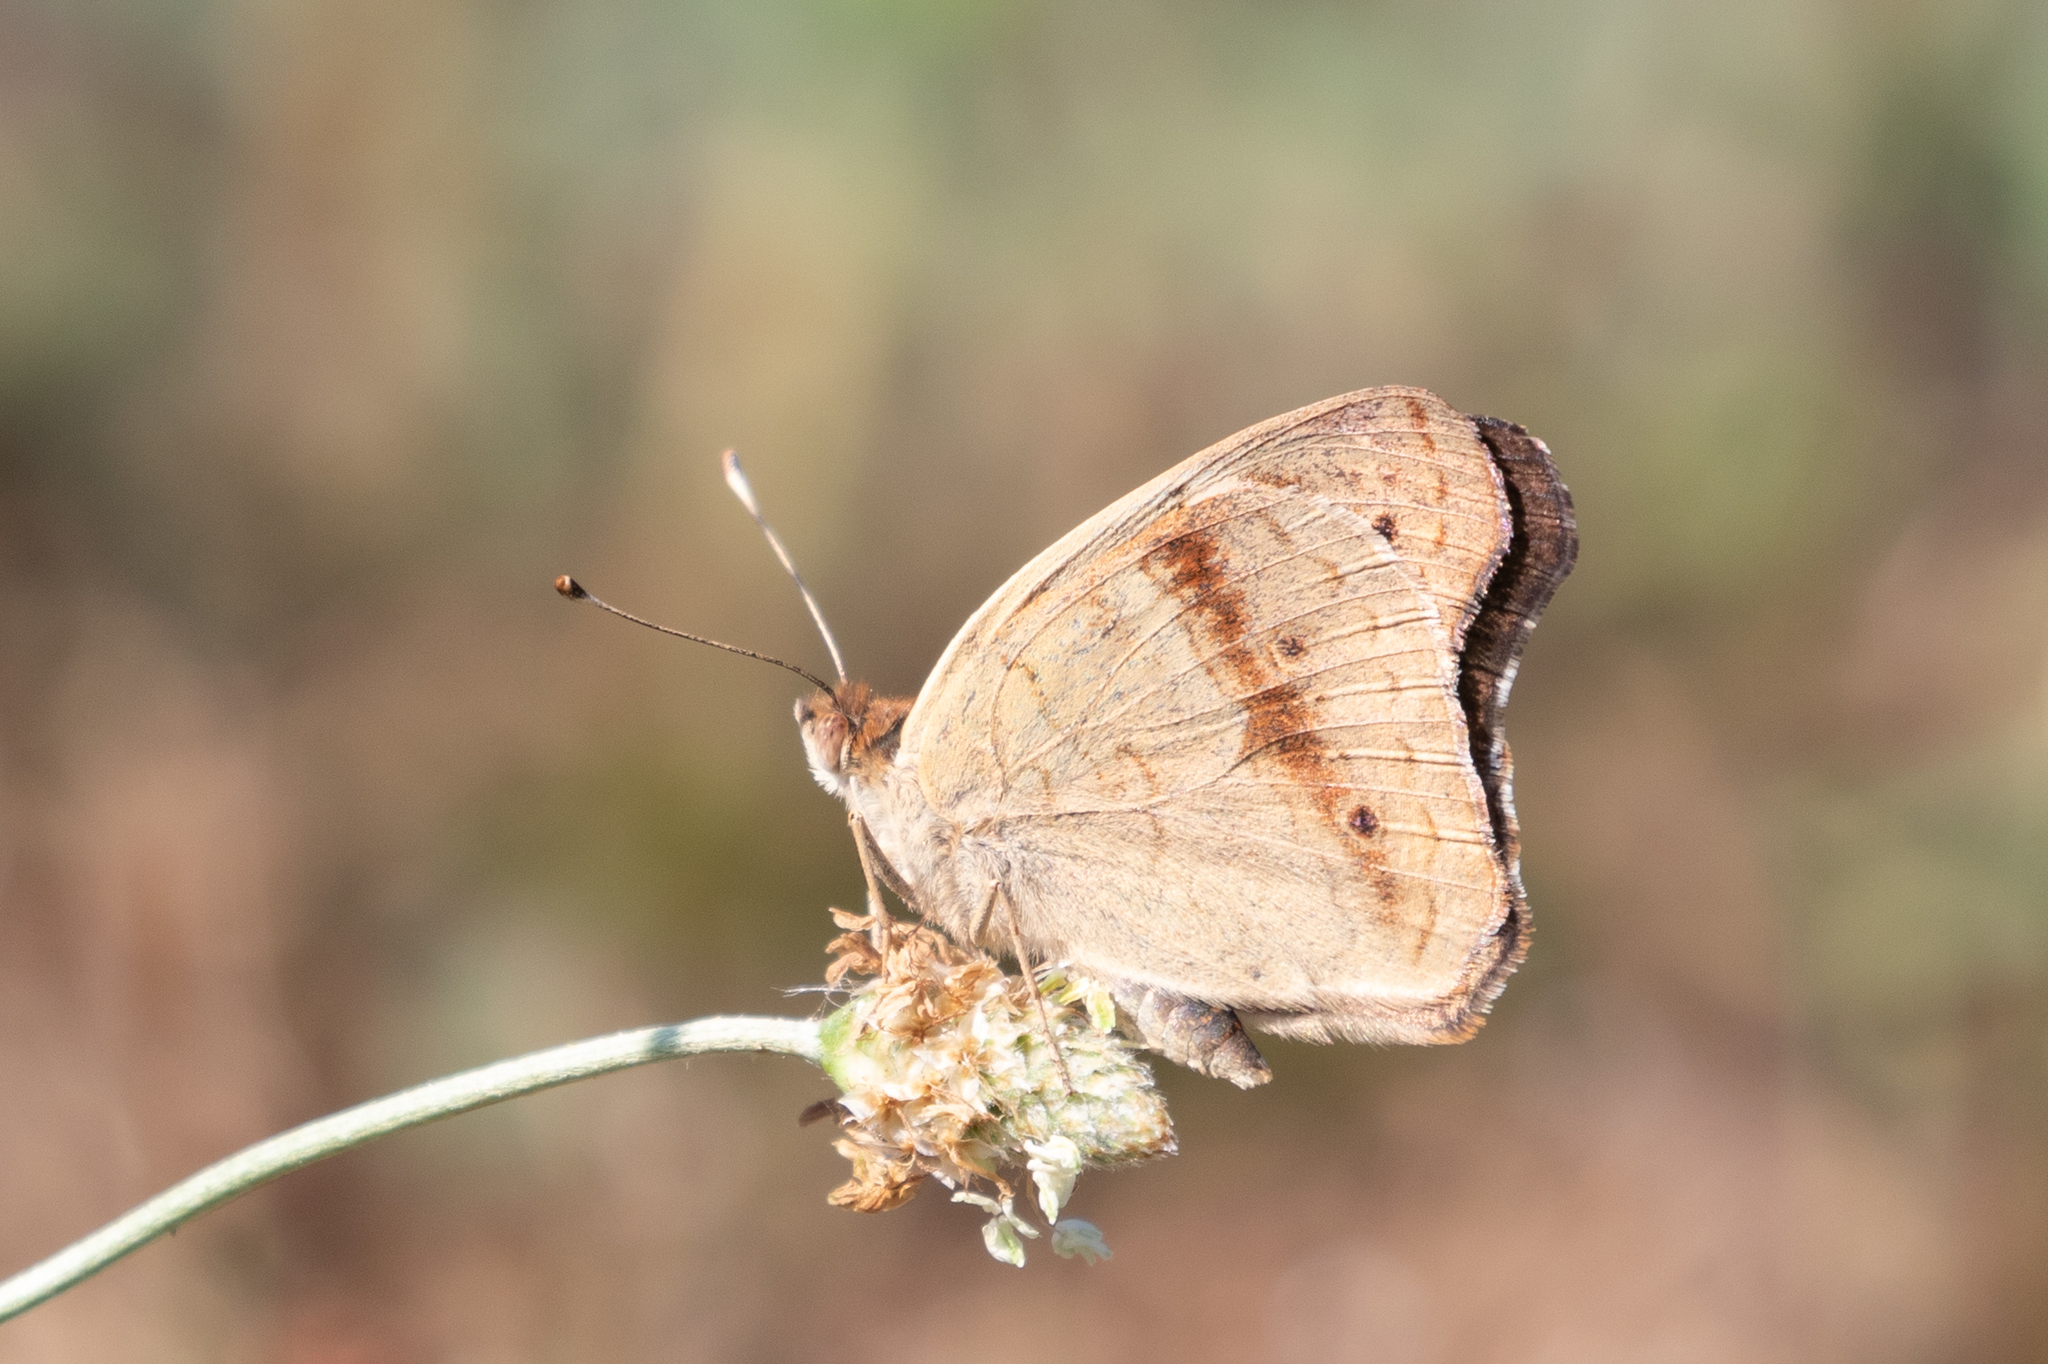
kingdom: Animalia
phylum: Arthropoda
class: Insecta
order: Lepidoptera
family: Nymphalidae
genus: Junonia
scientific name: Junonia coenia
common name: Common buckeye
